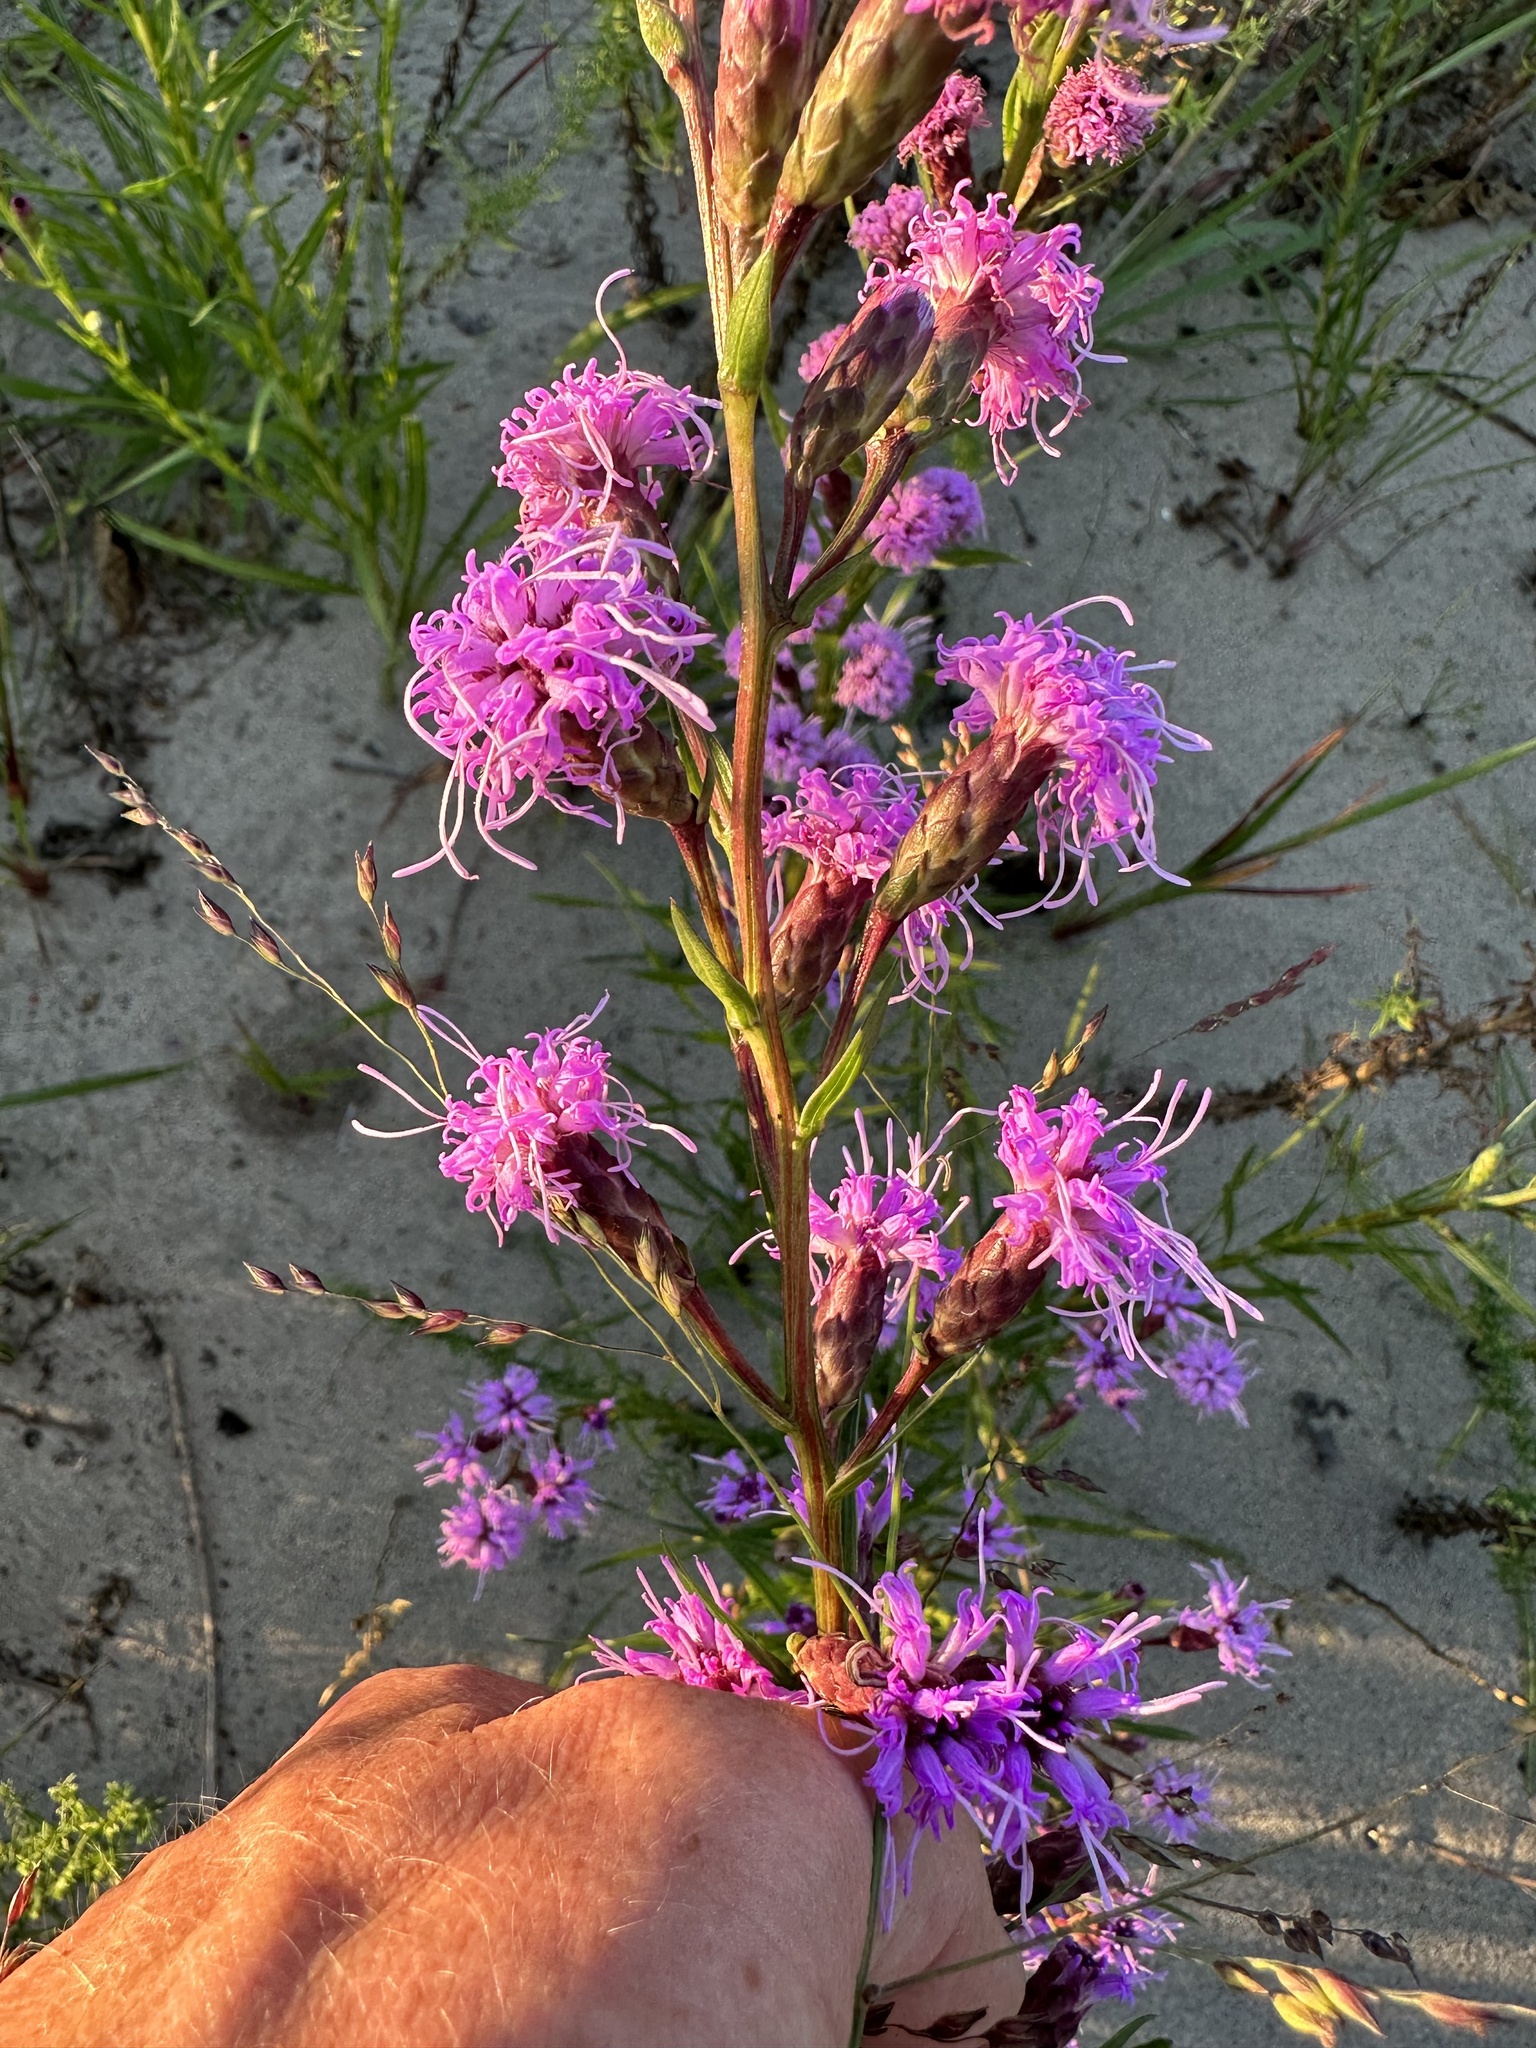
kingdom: Plantae
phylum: Tracheophyta
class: Magnoliopsida
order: Asterales
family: Asteraceae
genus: Liatris
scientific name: Liatris cylindracea
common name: Few-head blazingstar
